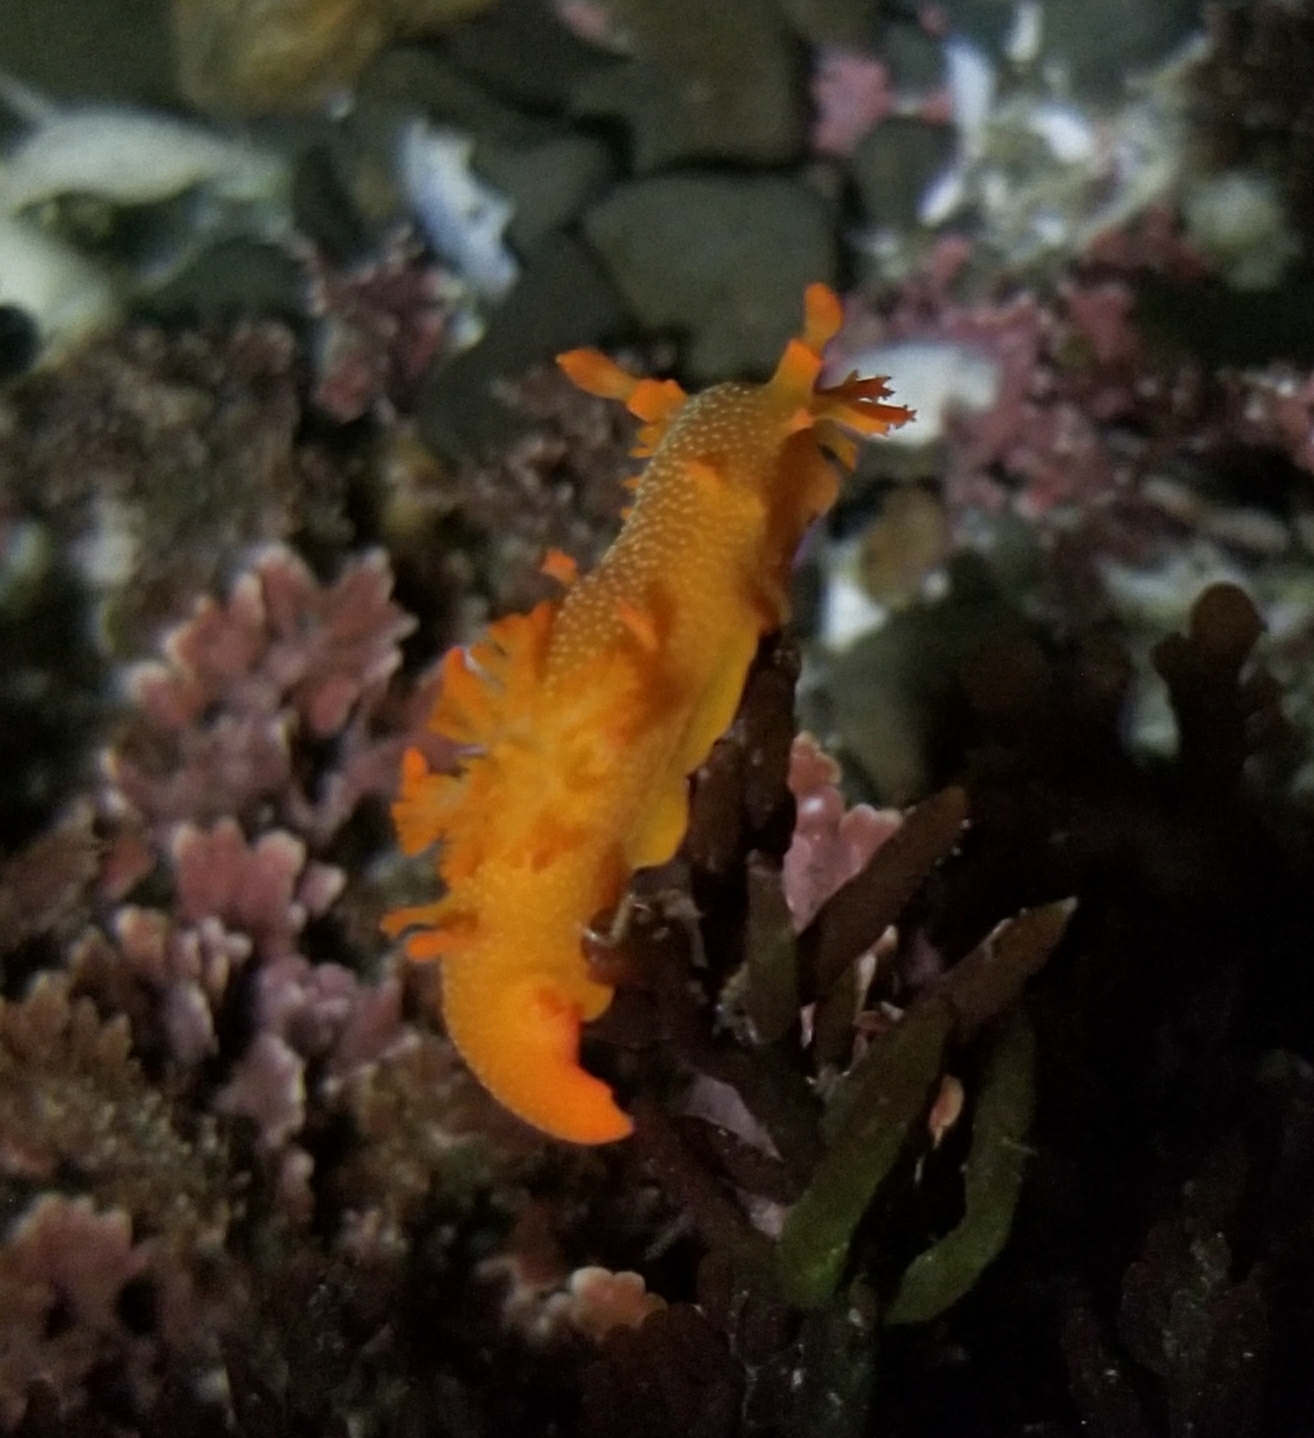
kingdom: Animalia
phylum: Mollusca
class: Gastropoda
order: Nudibranchia
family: Polyceridae
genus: Triopha
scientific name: Triopha maculata
